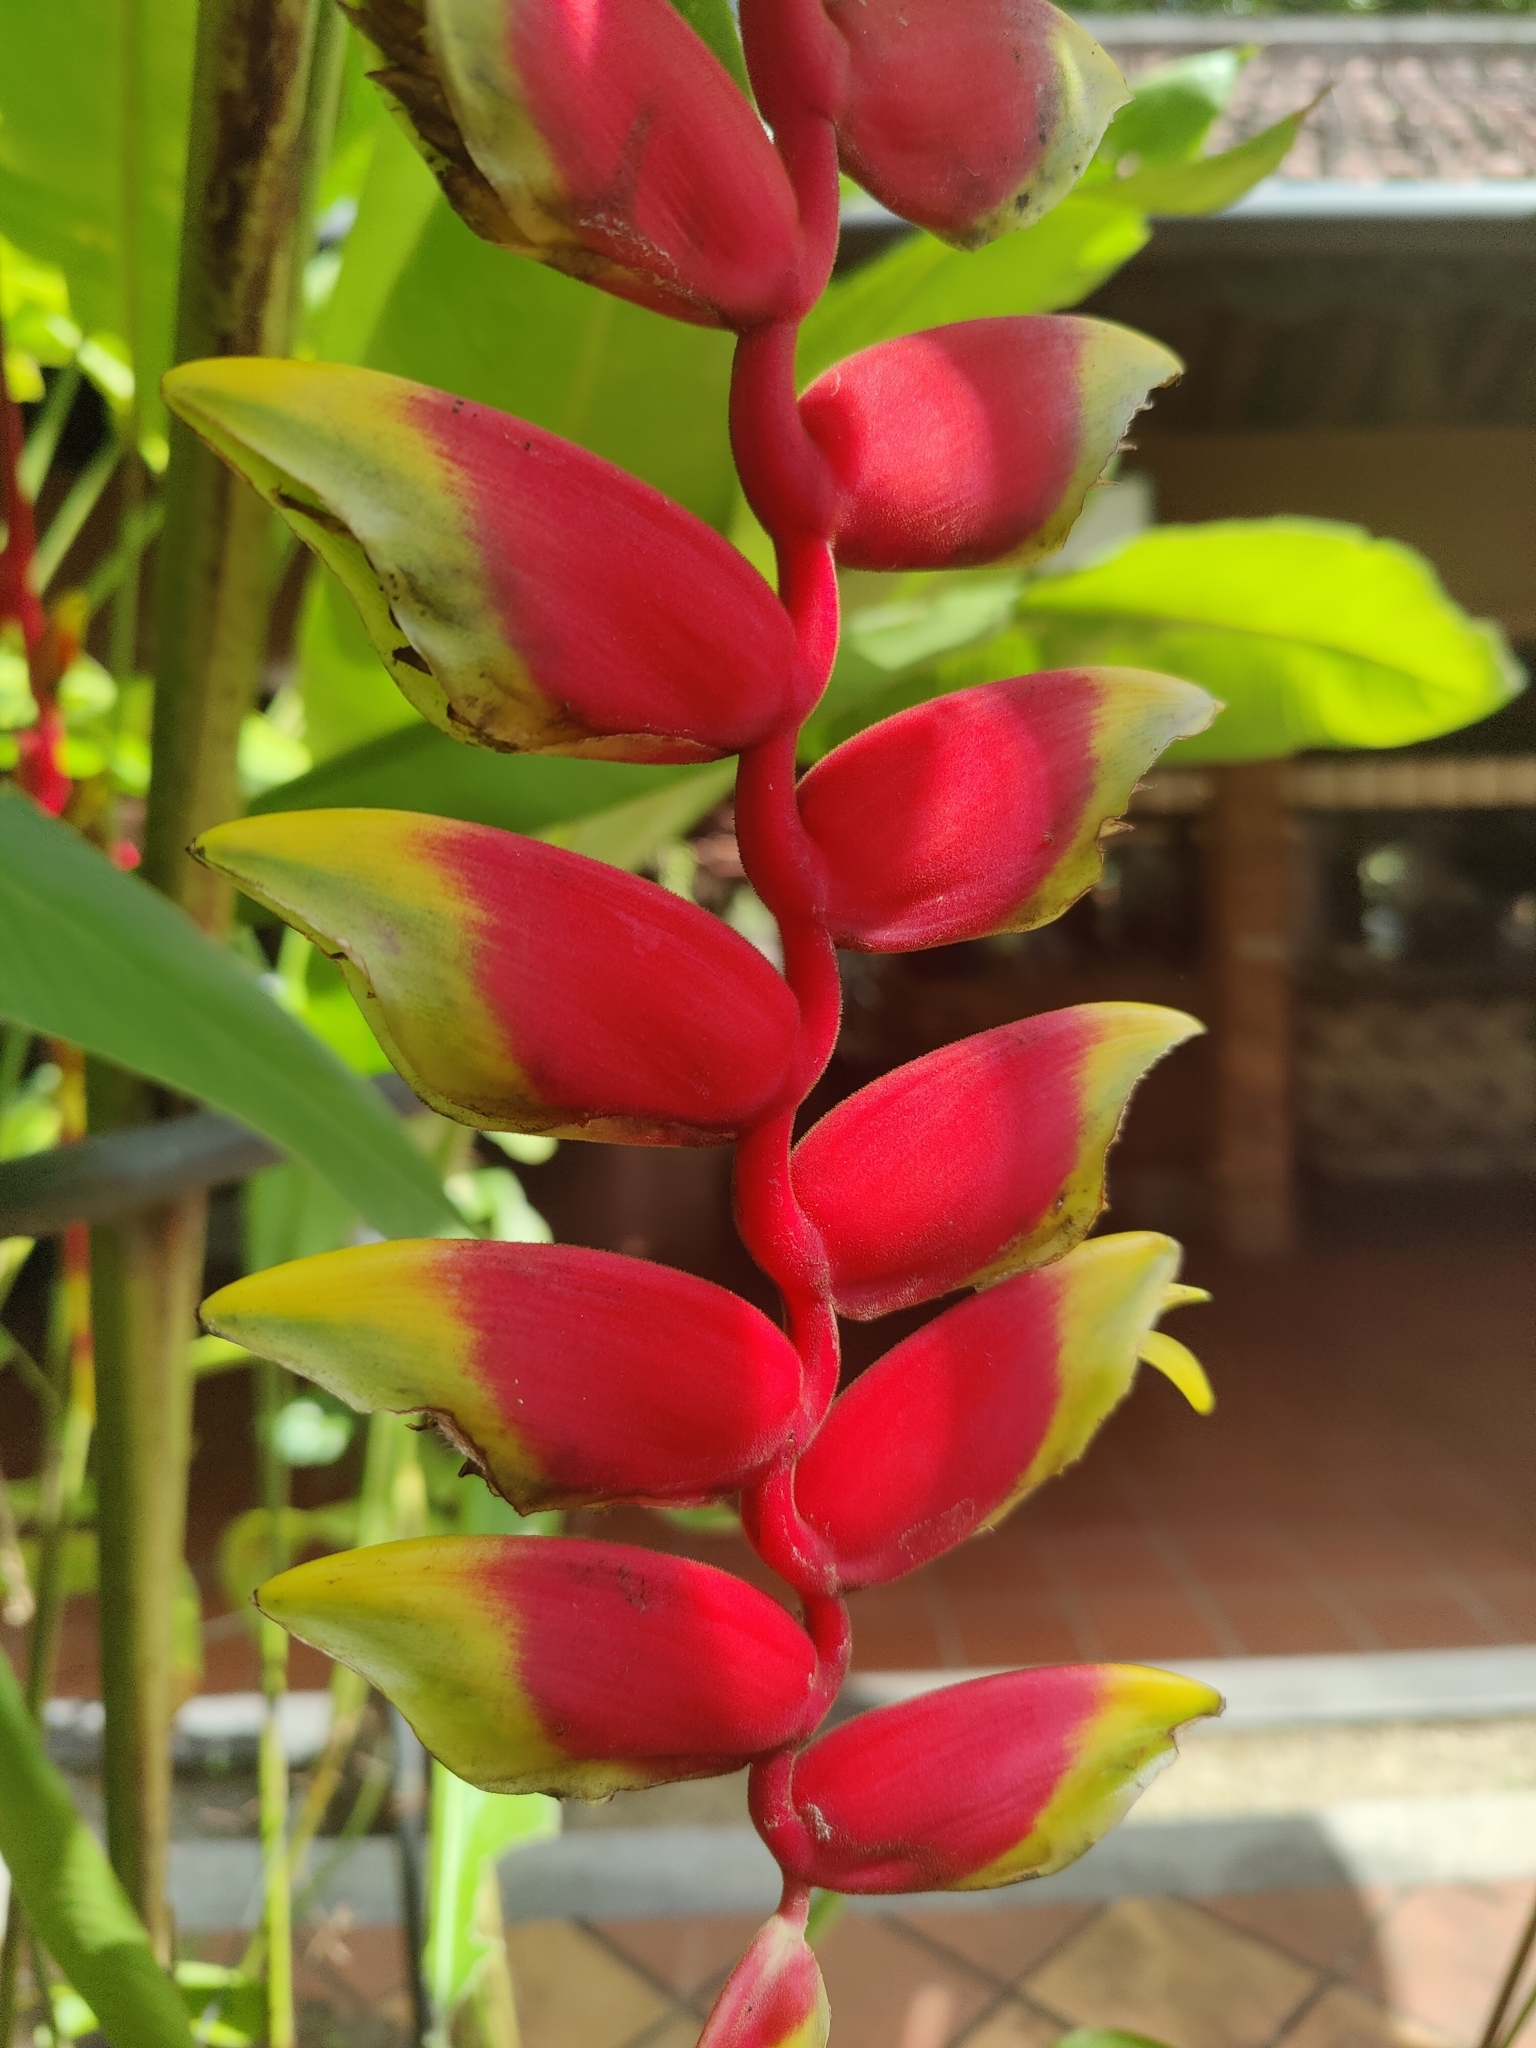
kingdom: Plantae
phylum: Tracheophyta
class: Liliopsida
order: Zingiberales
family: Heliconiaceae
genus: Heliconia
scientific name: Heliconia rostrata
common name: False bird of paradise
